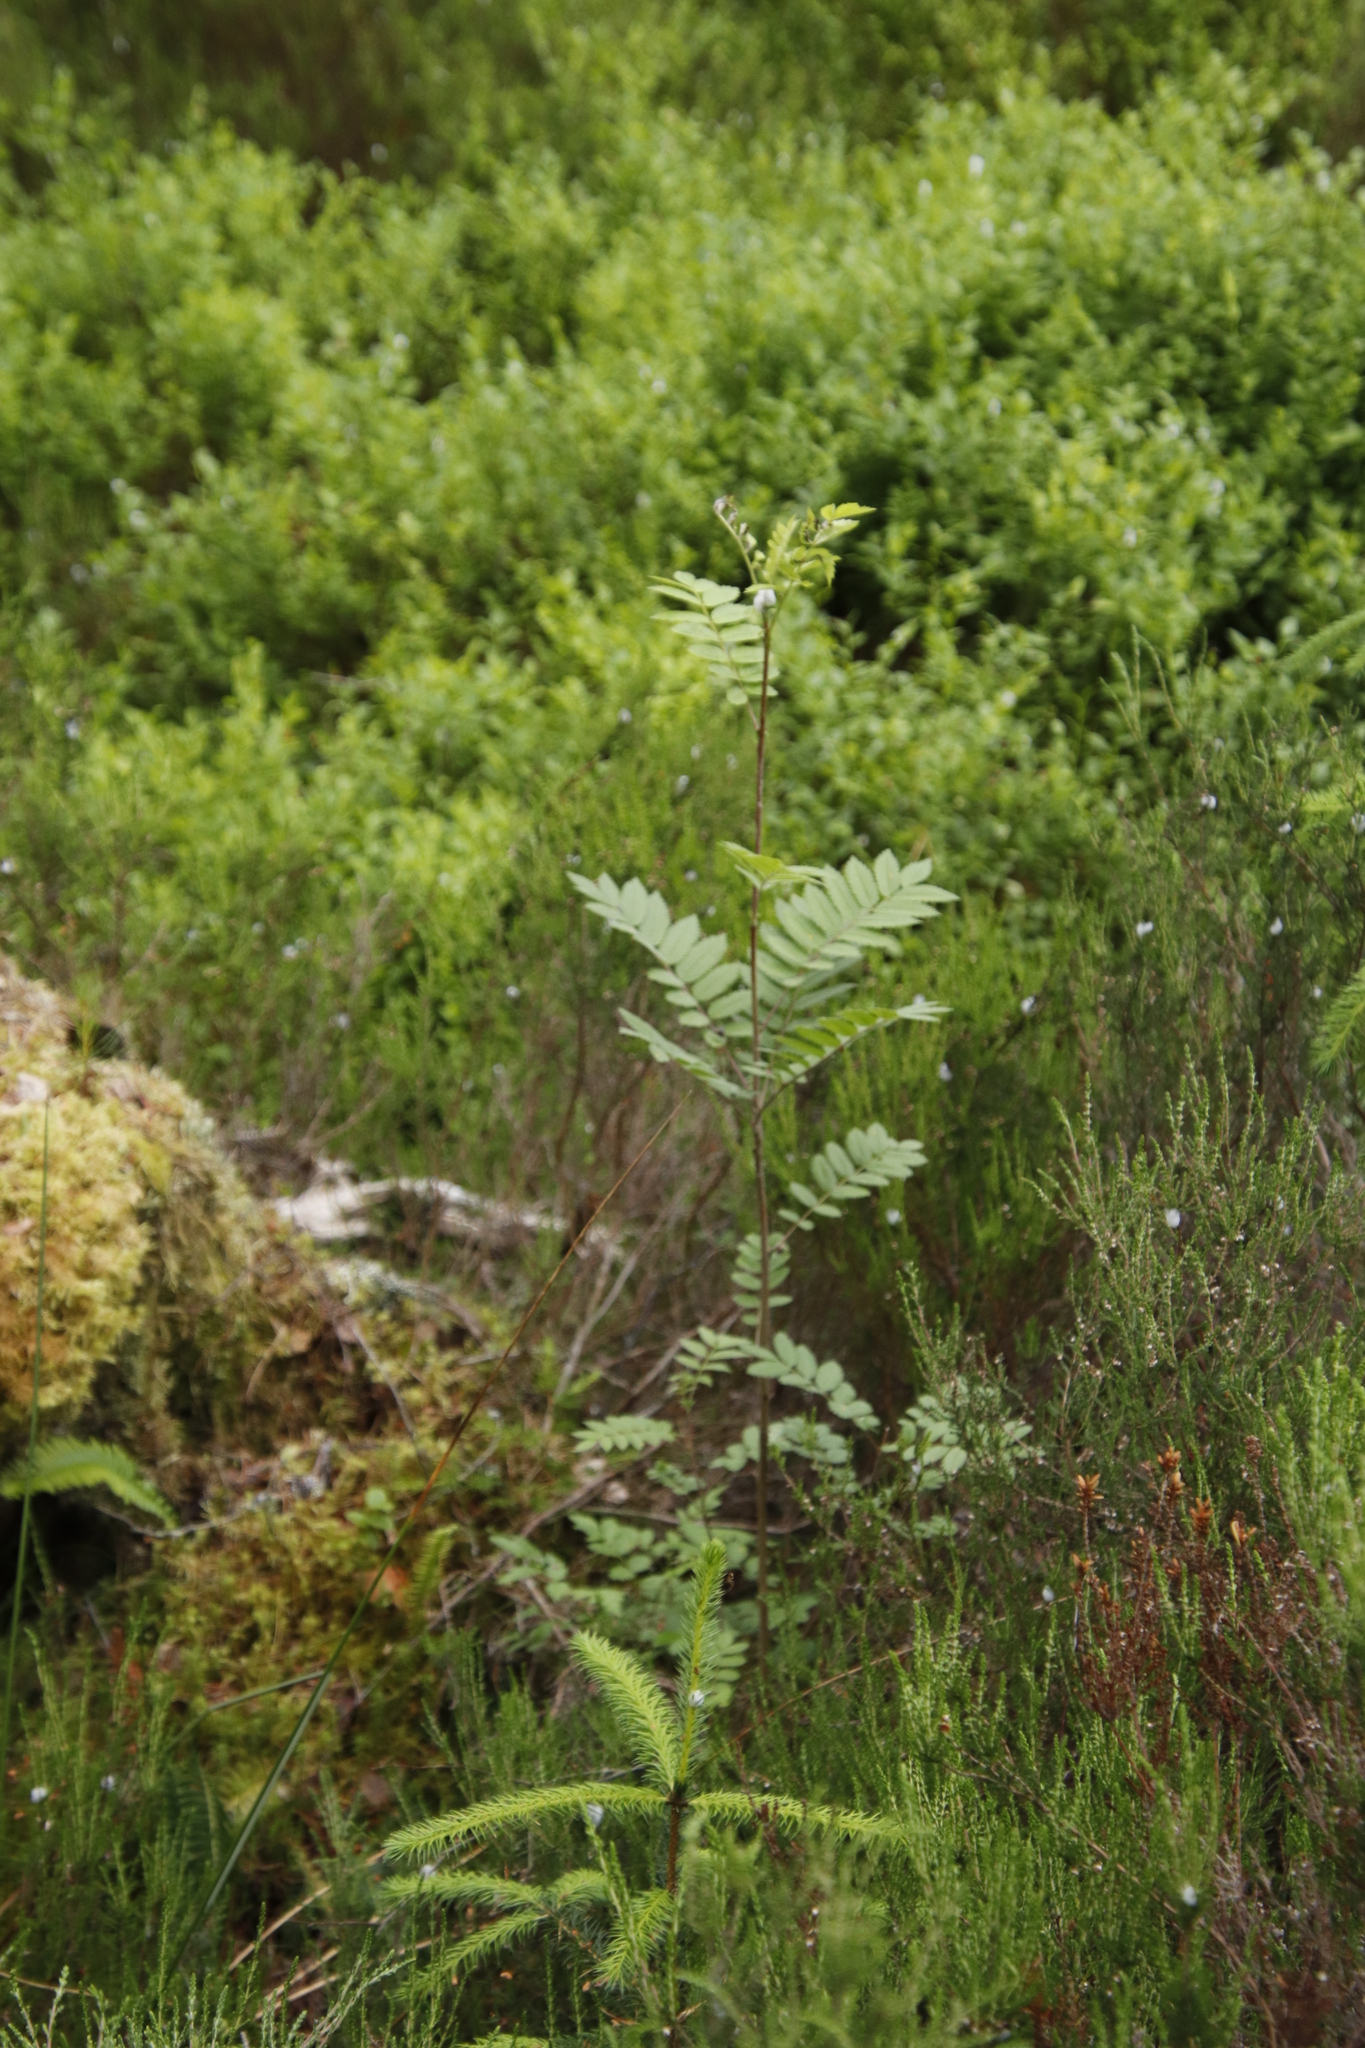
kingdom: Plantae
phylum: Tracheophyta
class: Magnoliopsida
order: Rosales
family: Rosaceae
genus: Sorbus
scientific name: Sorbus aucuparia
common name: Rowan
